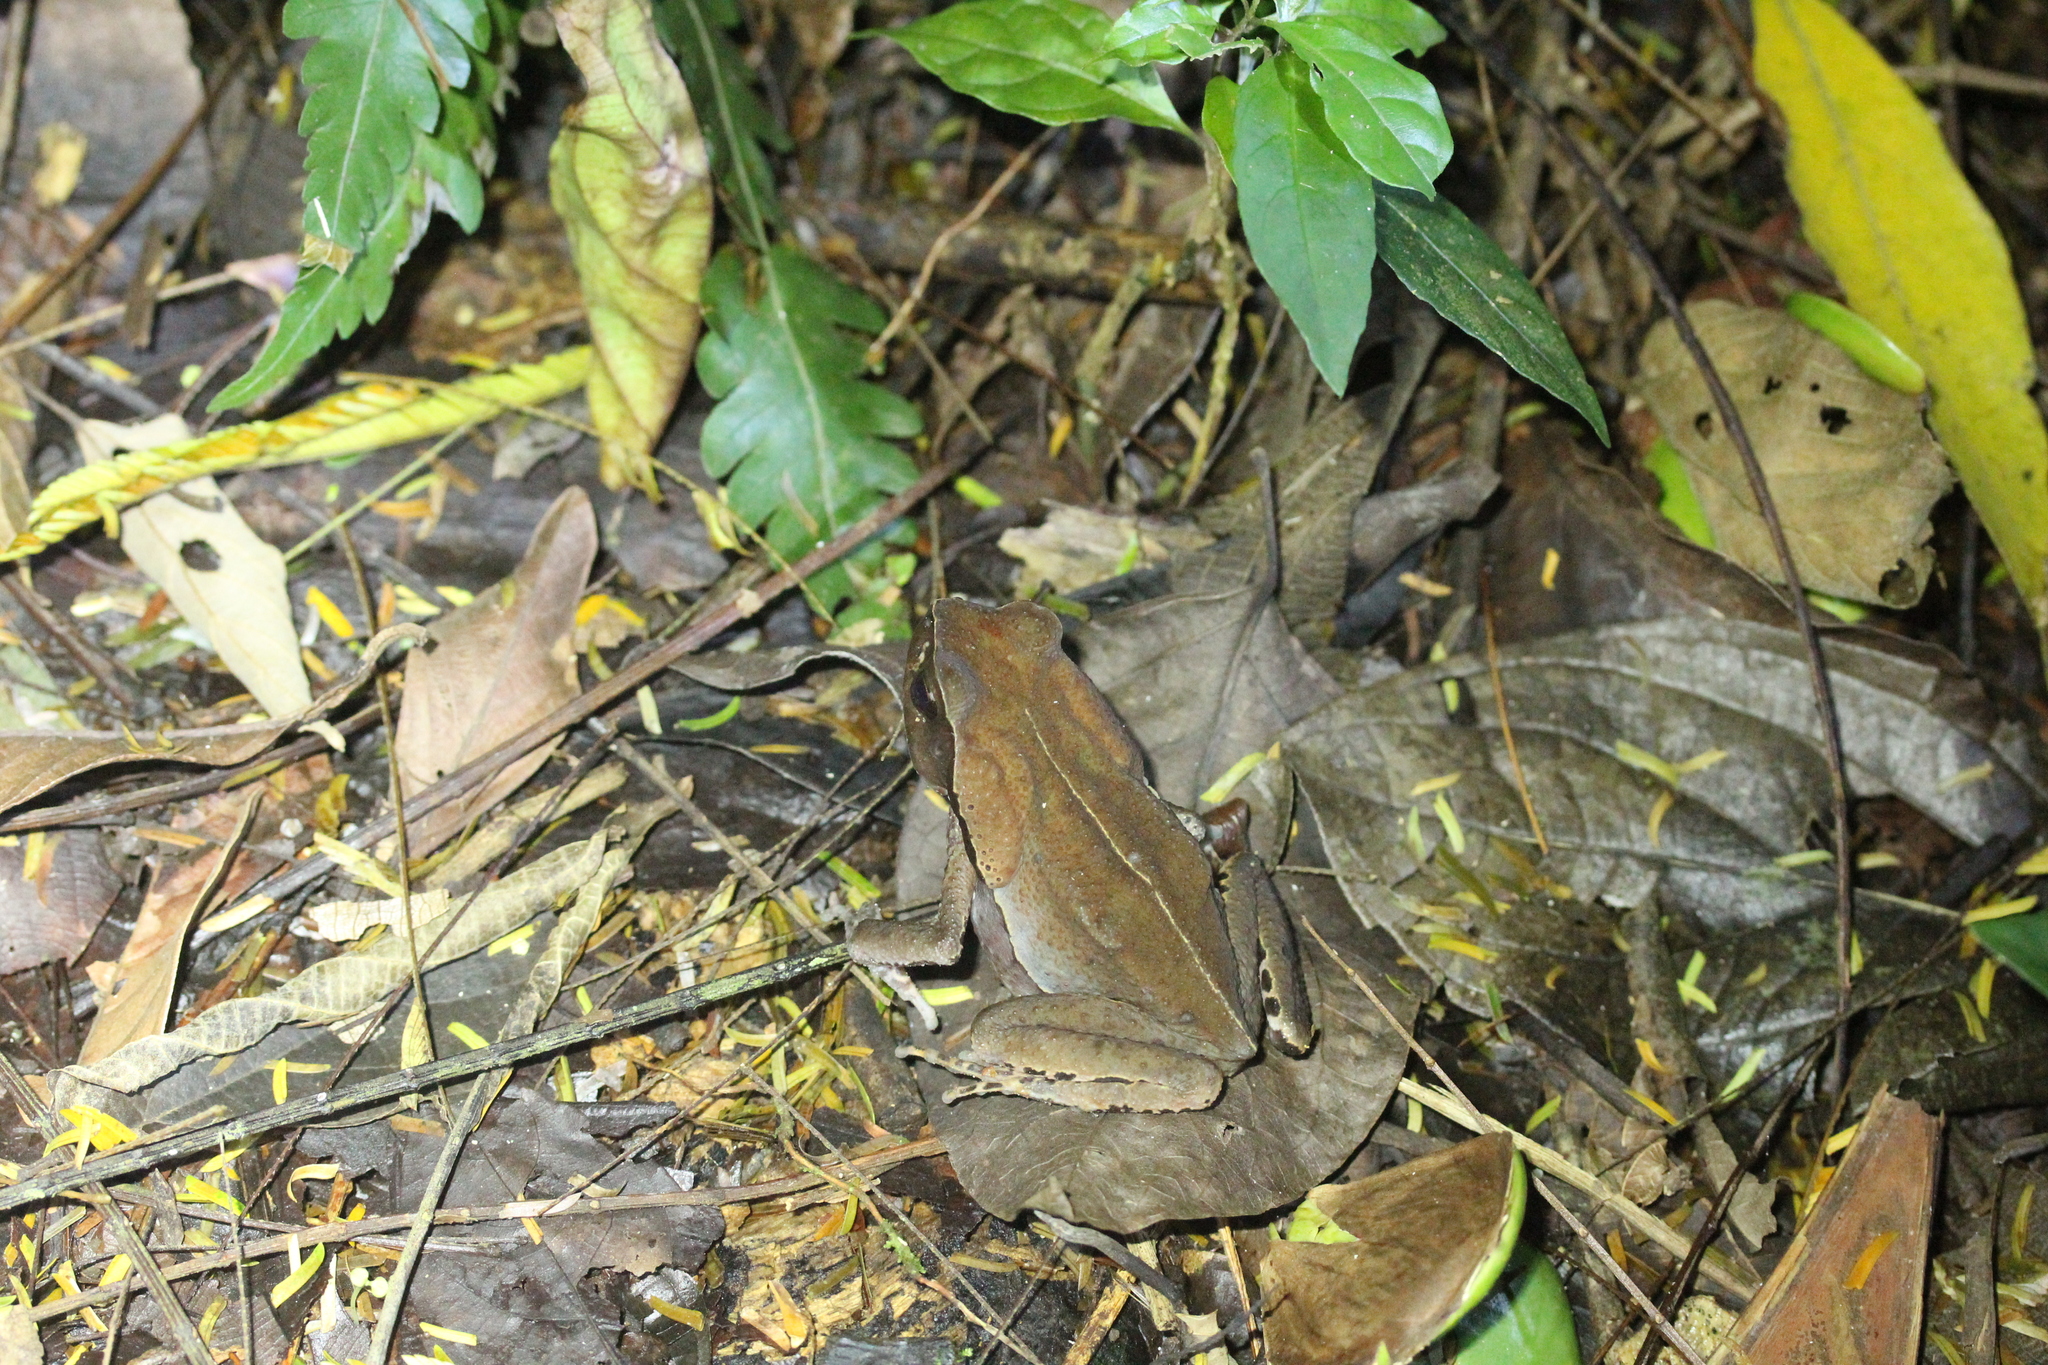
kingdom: Animalia
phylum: Chordata
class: Amphibia
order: Anura
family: Bufonidae
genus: Rhaebo
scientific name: Rhaebo haematiticus
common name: Truando toad
